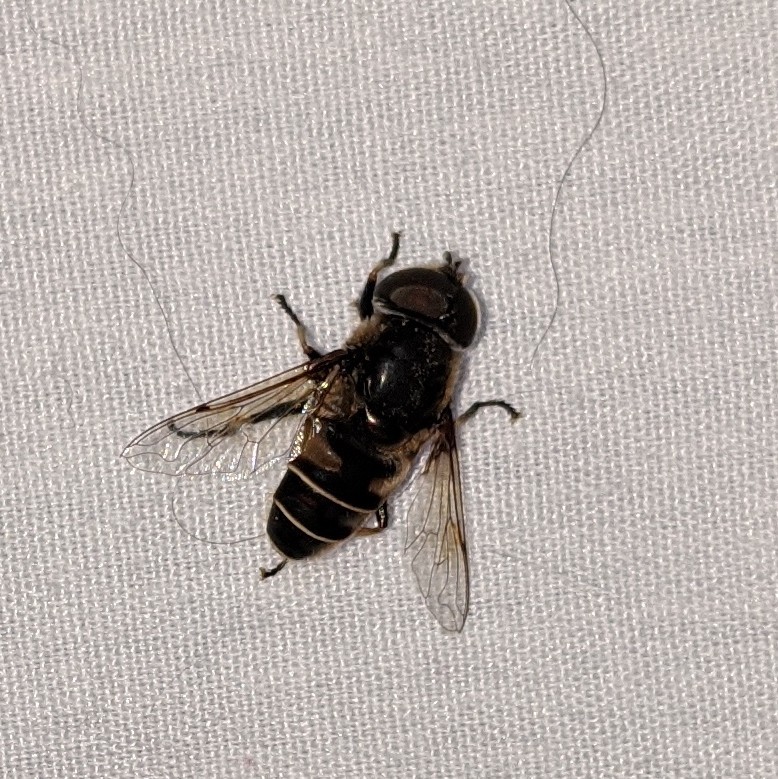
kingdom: Animalia
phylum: Arthropoda
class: Insecta
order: Diptera
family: Syrphidae
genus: Eristalis
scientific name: Eristalis dimidiata
